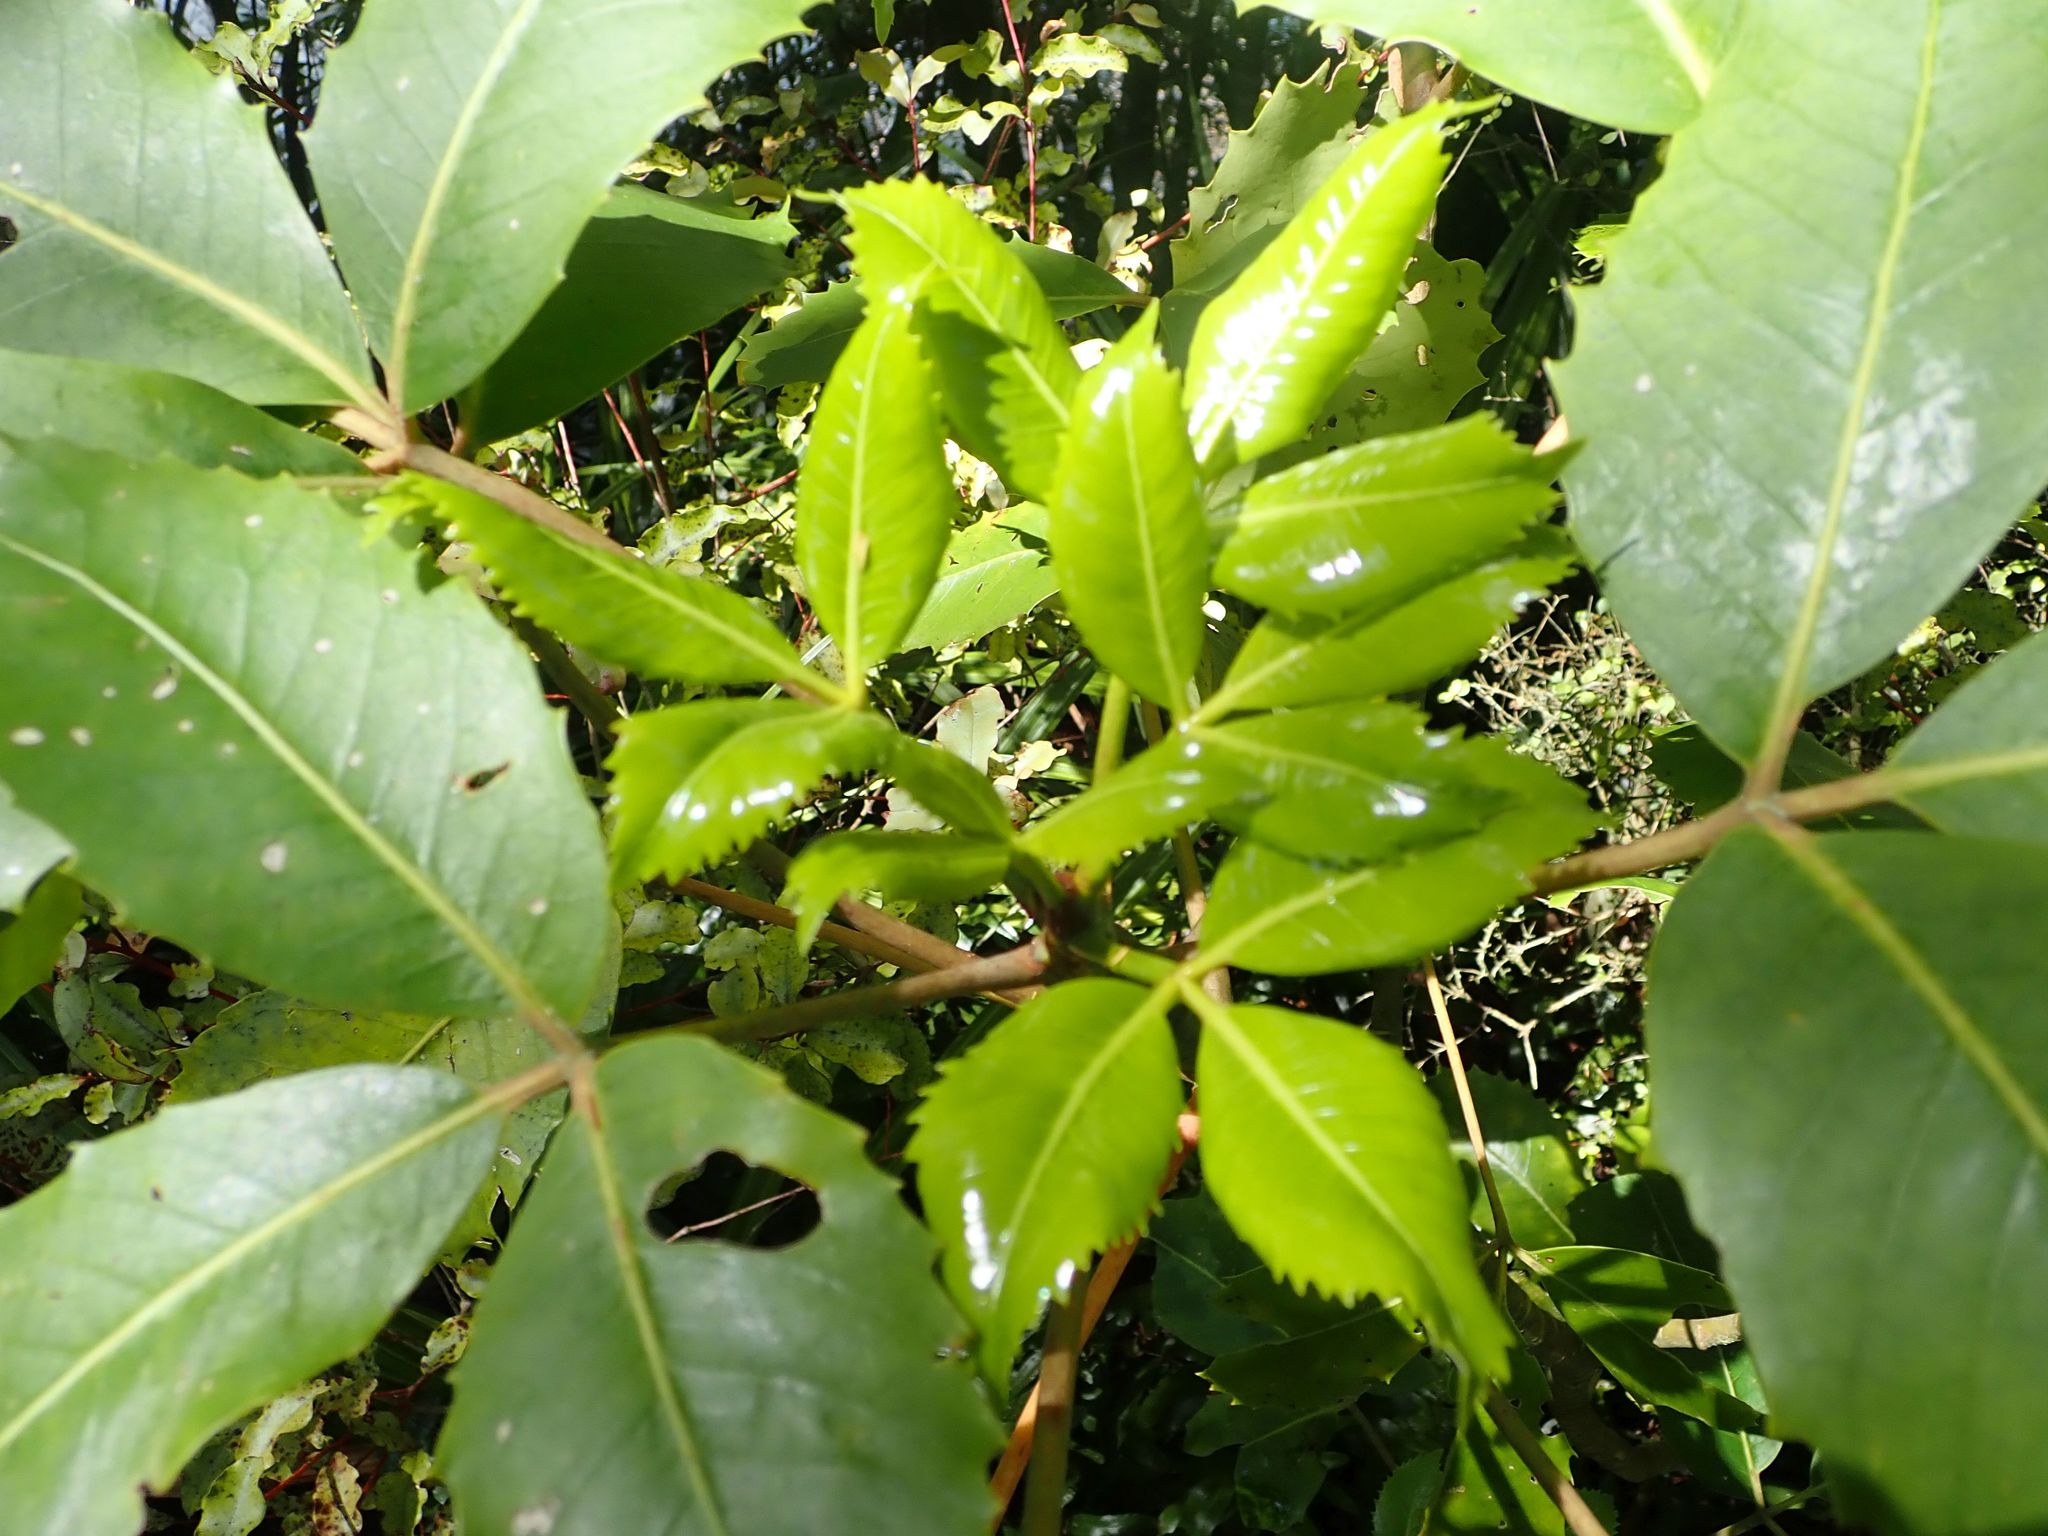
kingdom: Plantae
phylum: Tracheophyta
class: Magnoliopsida
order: Apiales
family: Araliaceae
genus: Neopanax
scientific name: Neopanax colensoi
